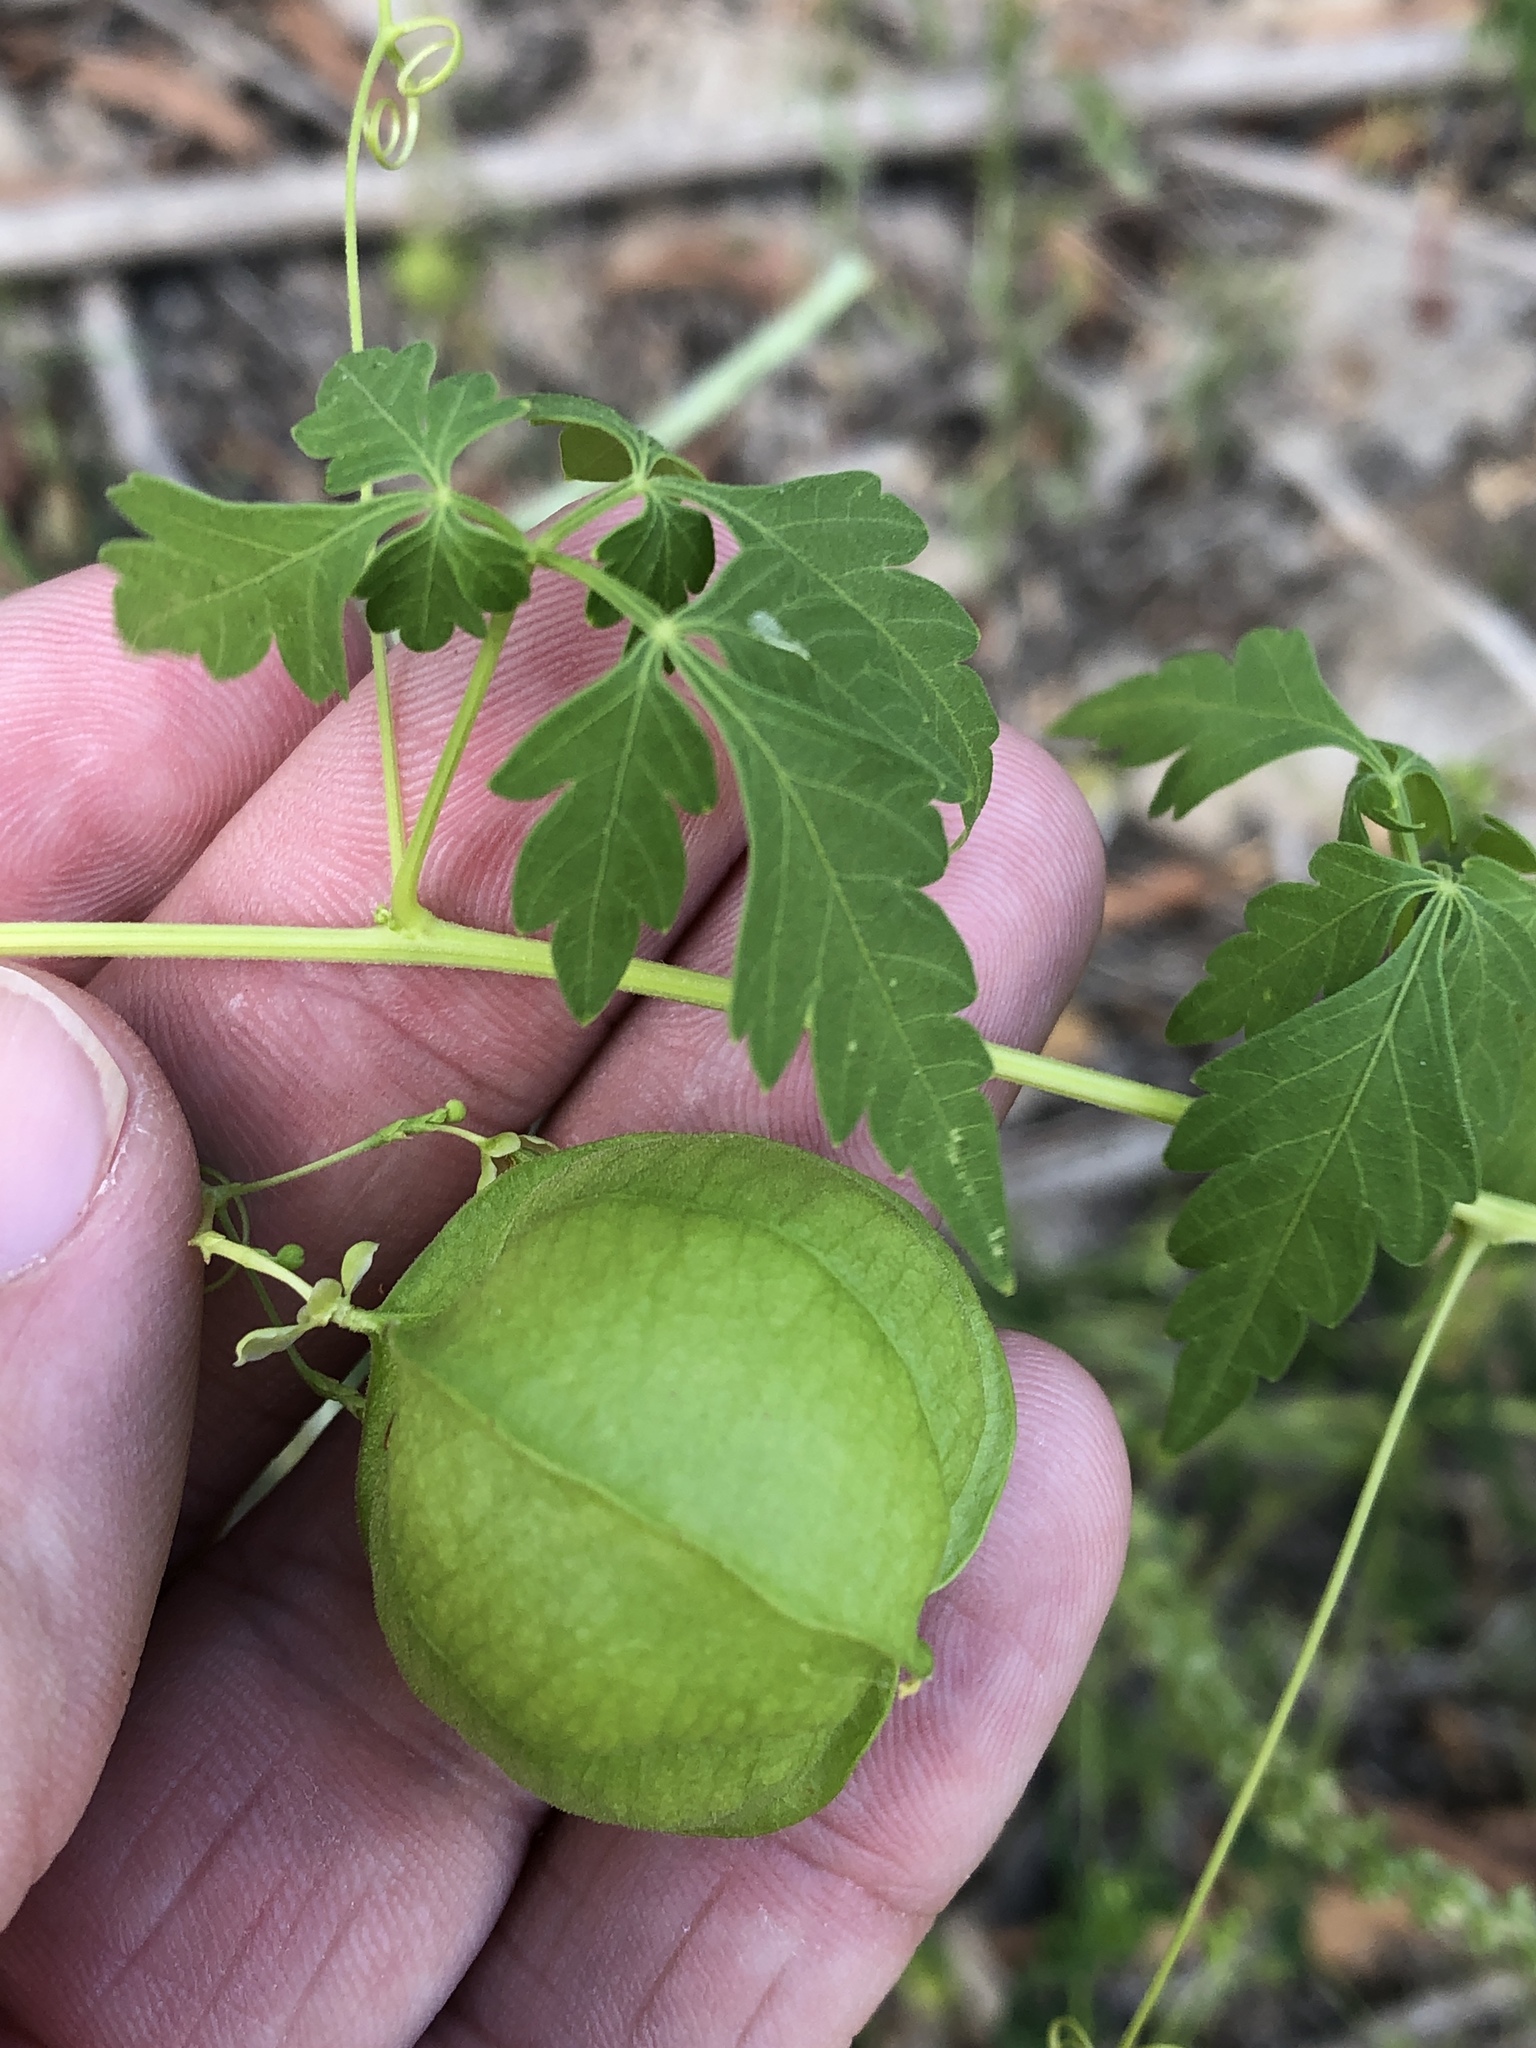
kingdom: Plantae
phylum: Tracheophyta
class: Magnoliopsida
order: Sapindales
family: Sapindaceae
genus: Cardiospermum
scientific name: Cardiospermum halicacabum
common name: Balloon vine
